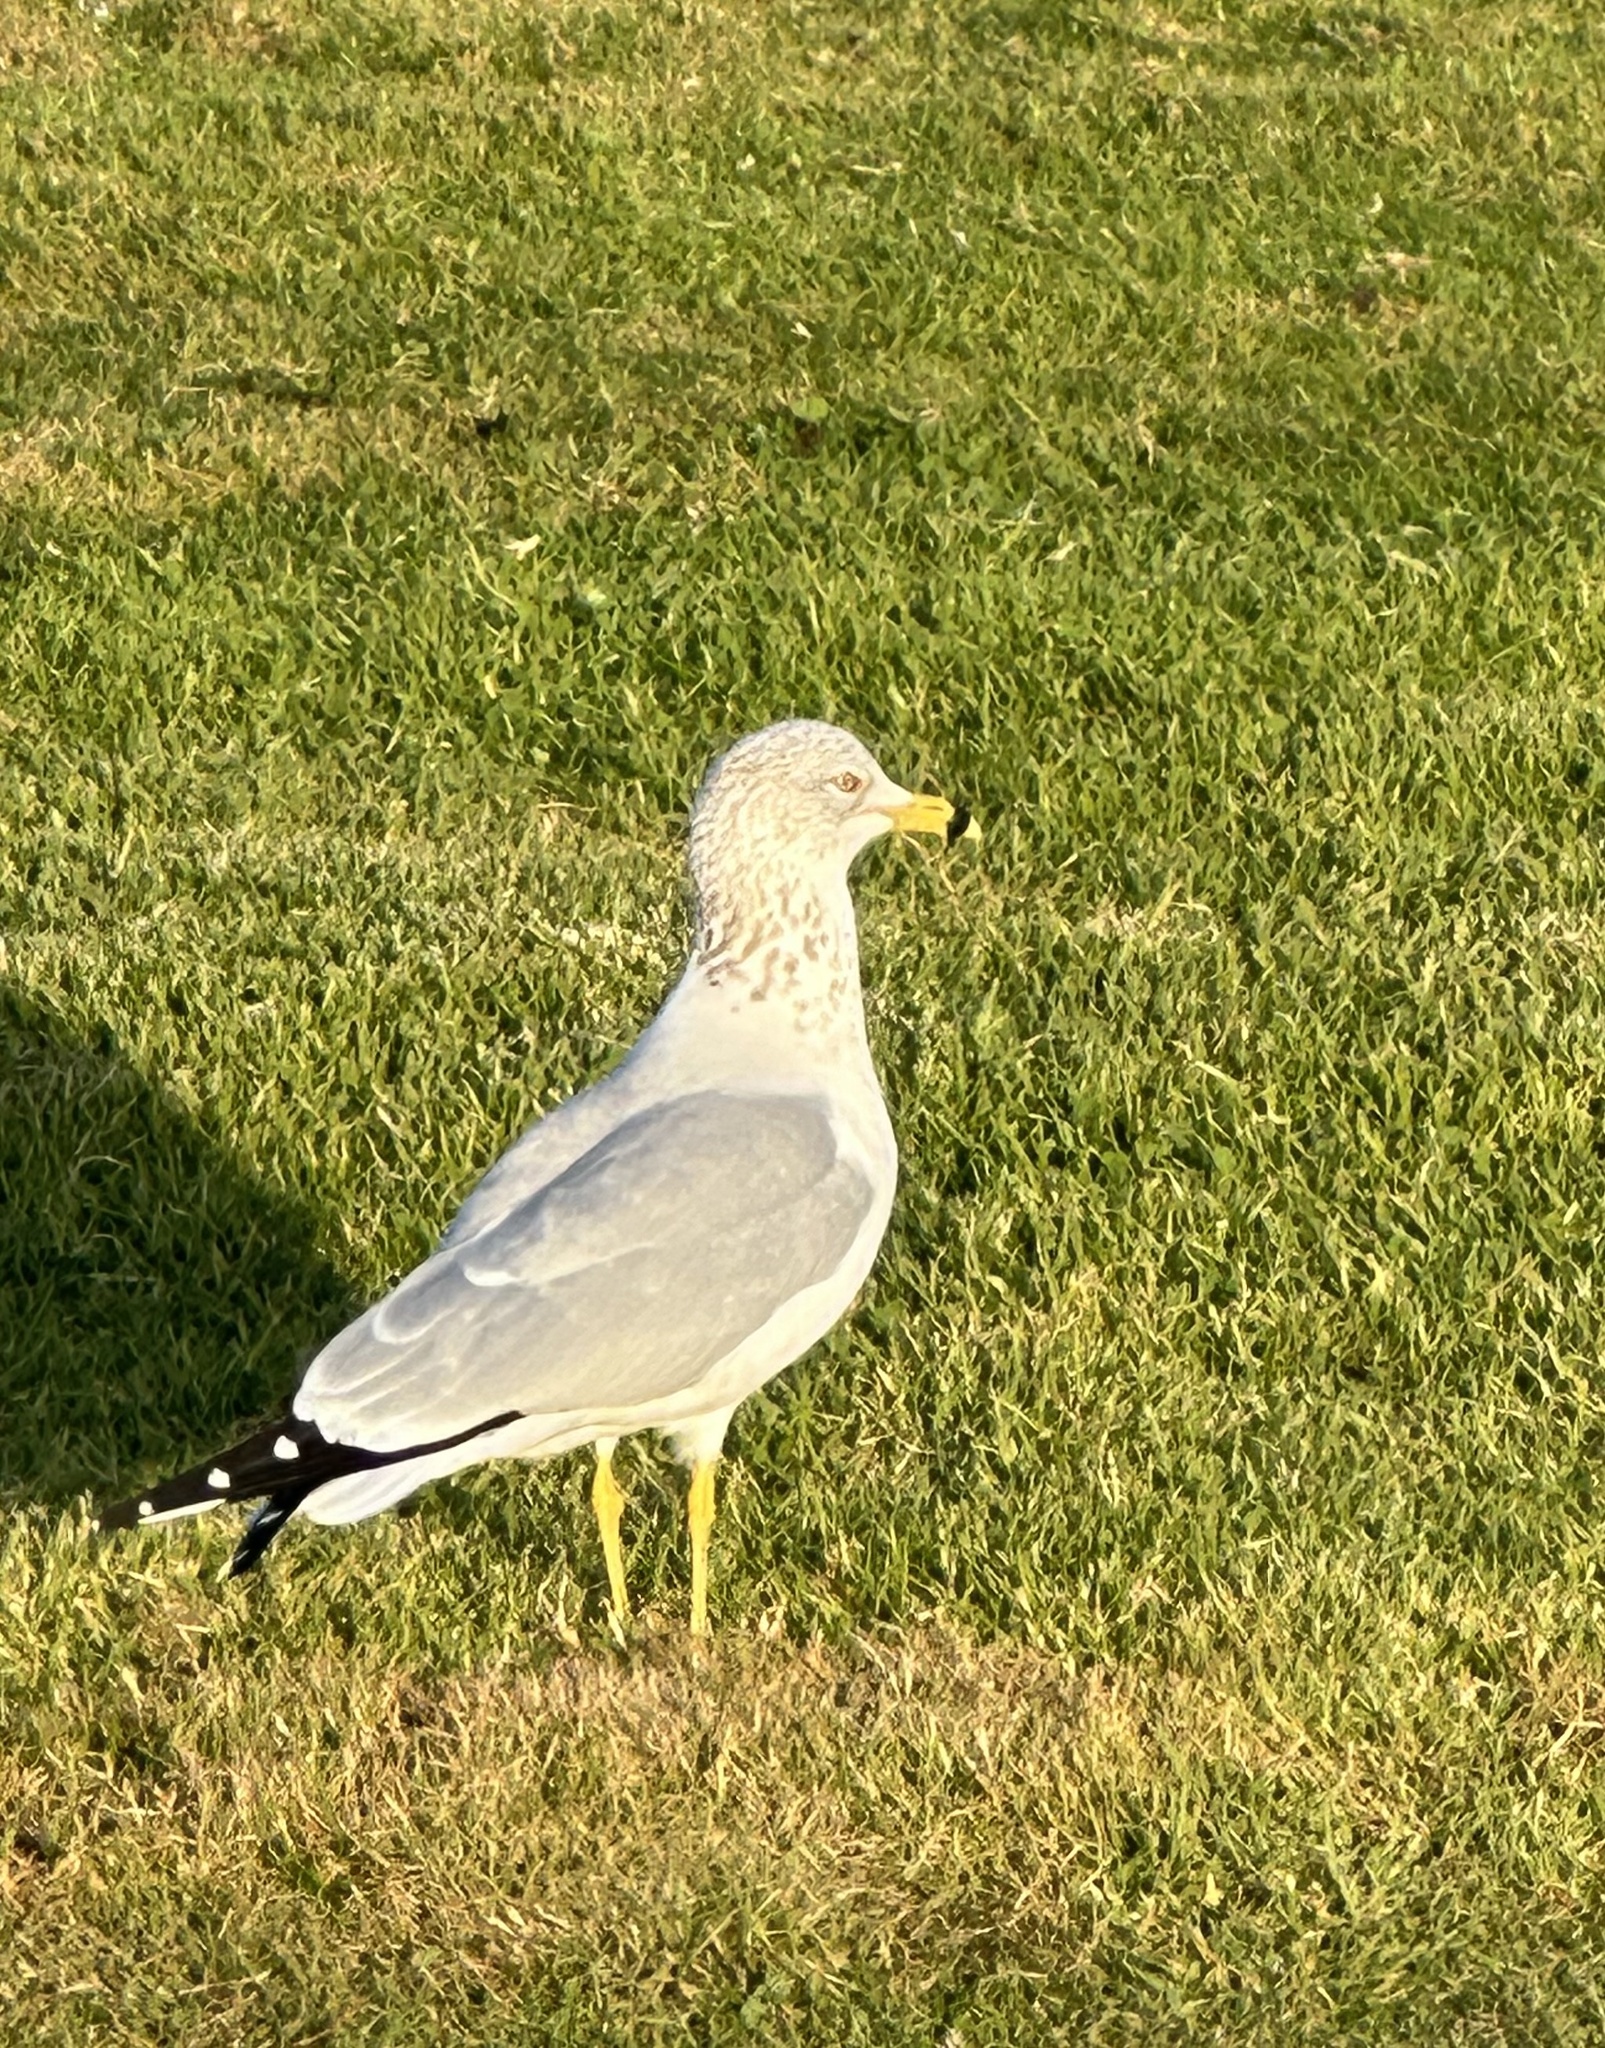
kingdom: Animalia
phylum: Chordata
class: Aves
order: Charadriiformes
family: Laridae
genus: Larus
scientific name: Larus delawarensis
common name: Ring-billed gull
